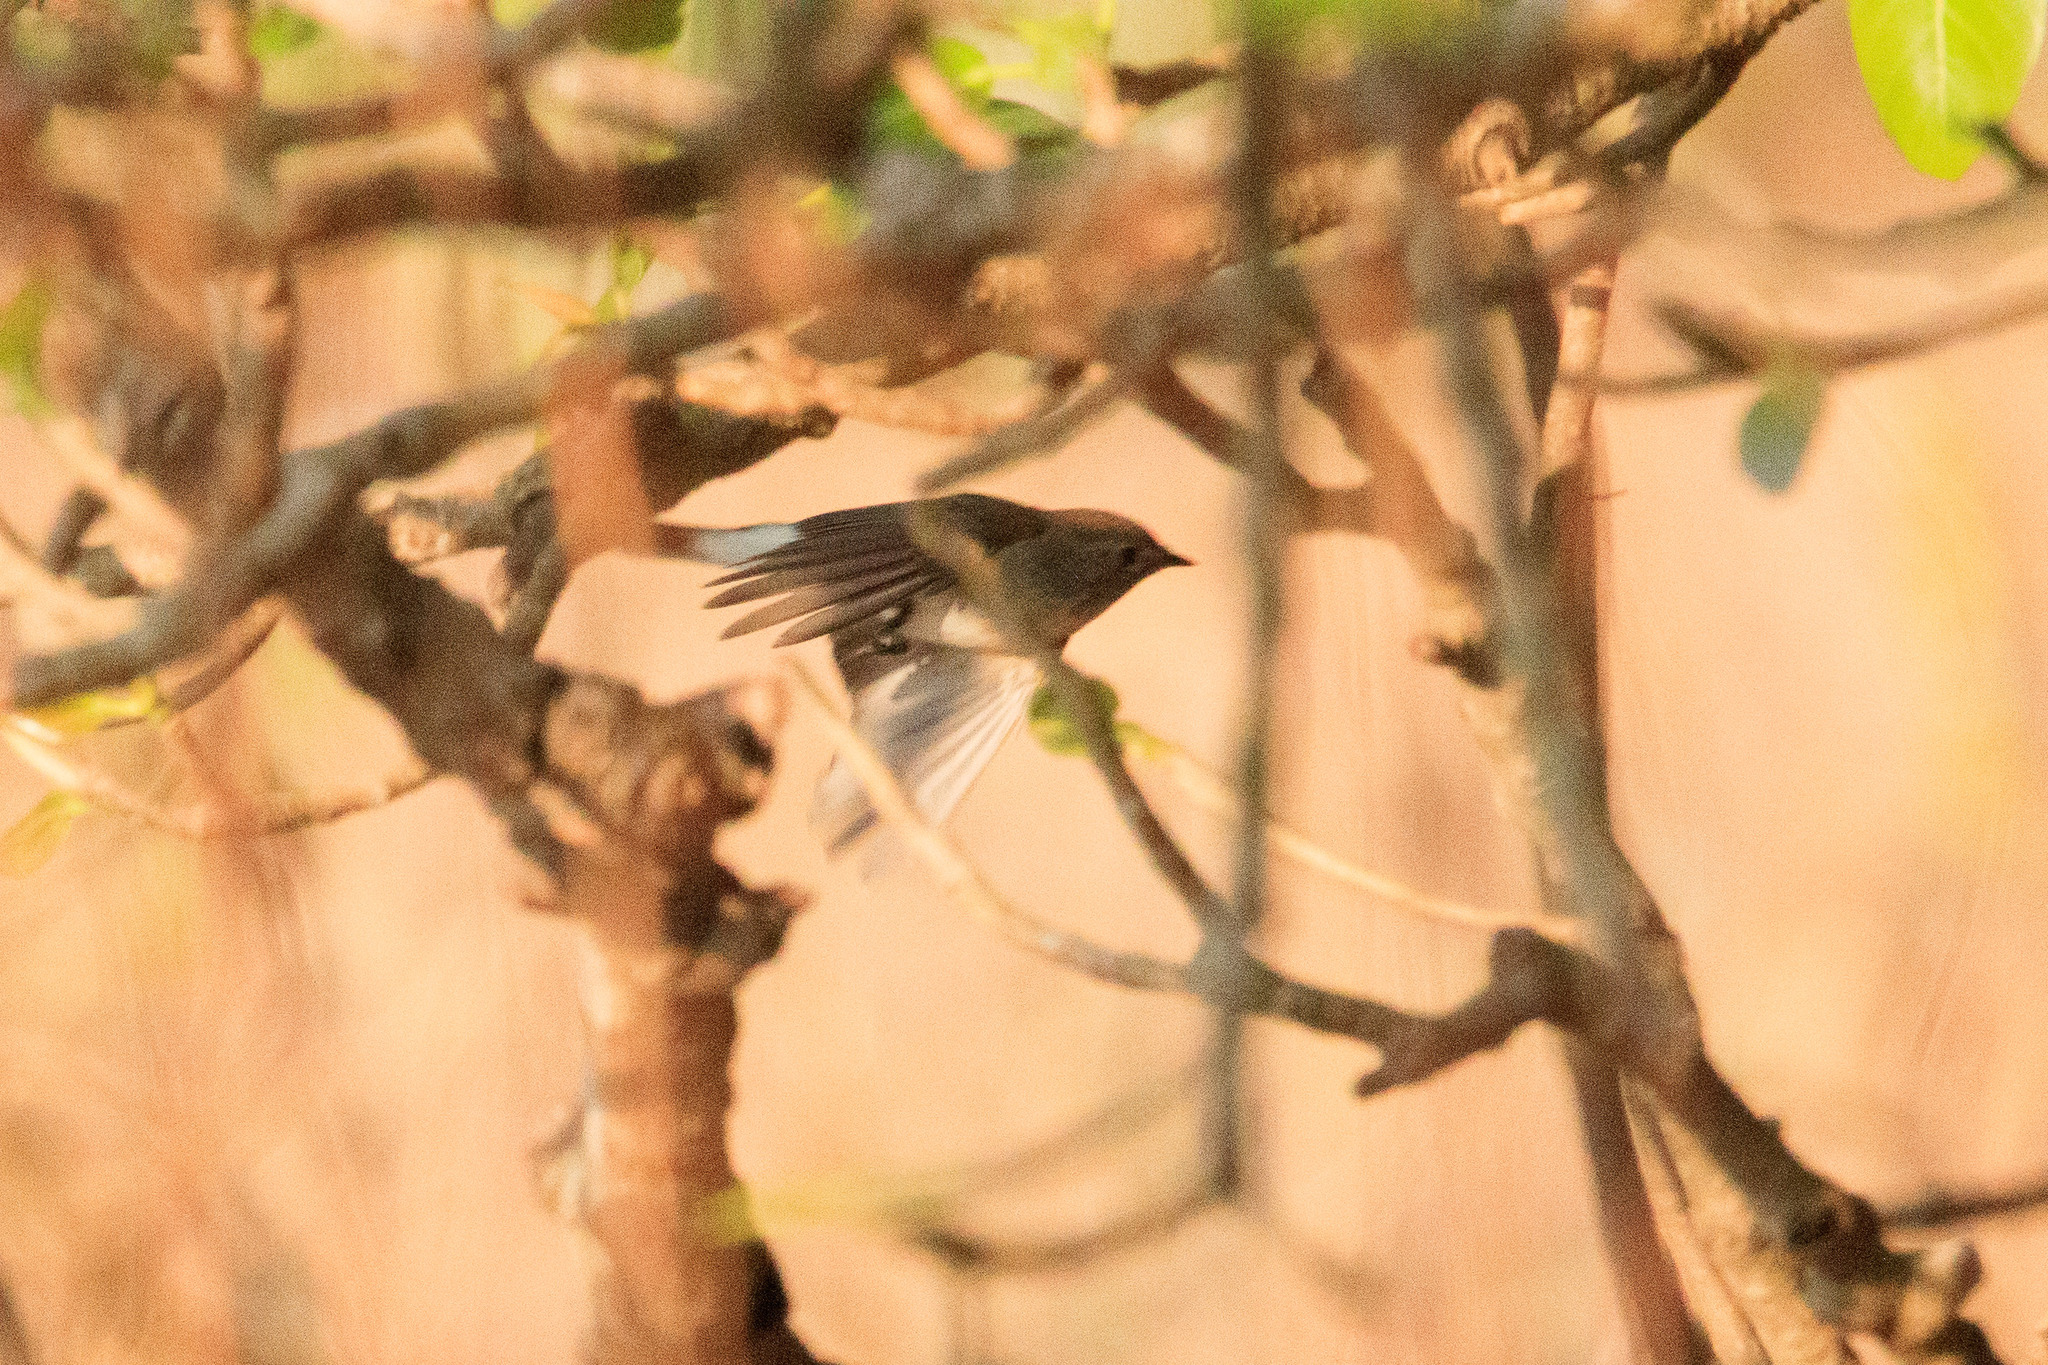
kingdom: Animalia
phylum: Chordata
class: Aves
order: Passeriformes
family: Muscicapidae
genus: Ficedula
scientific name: Ficedula albicilla
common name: Taiga flycatcher
